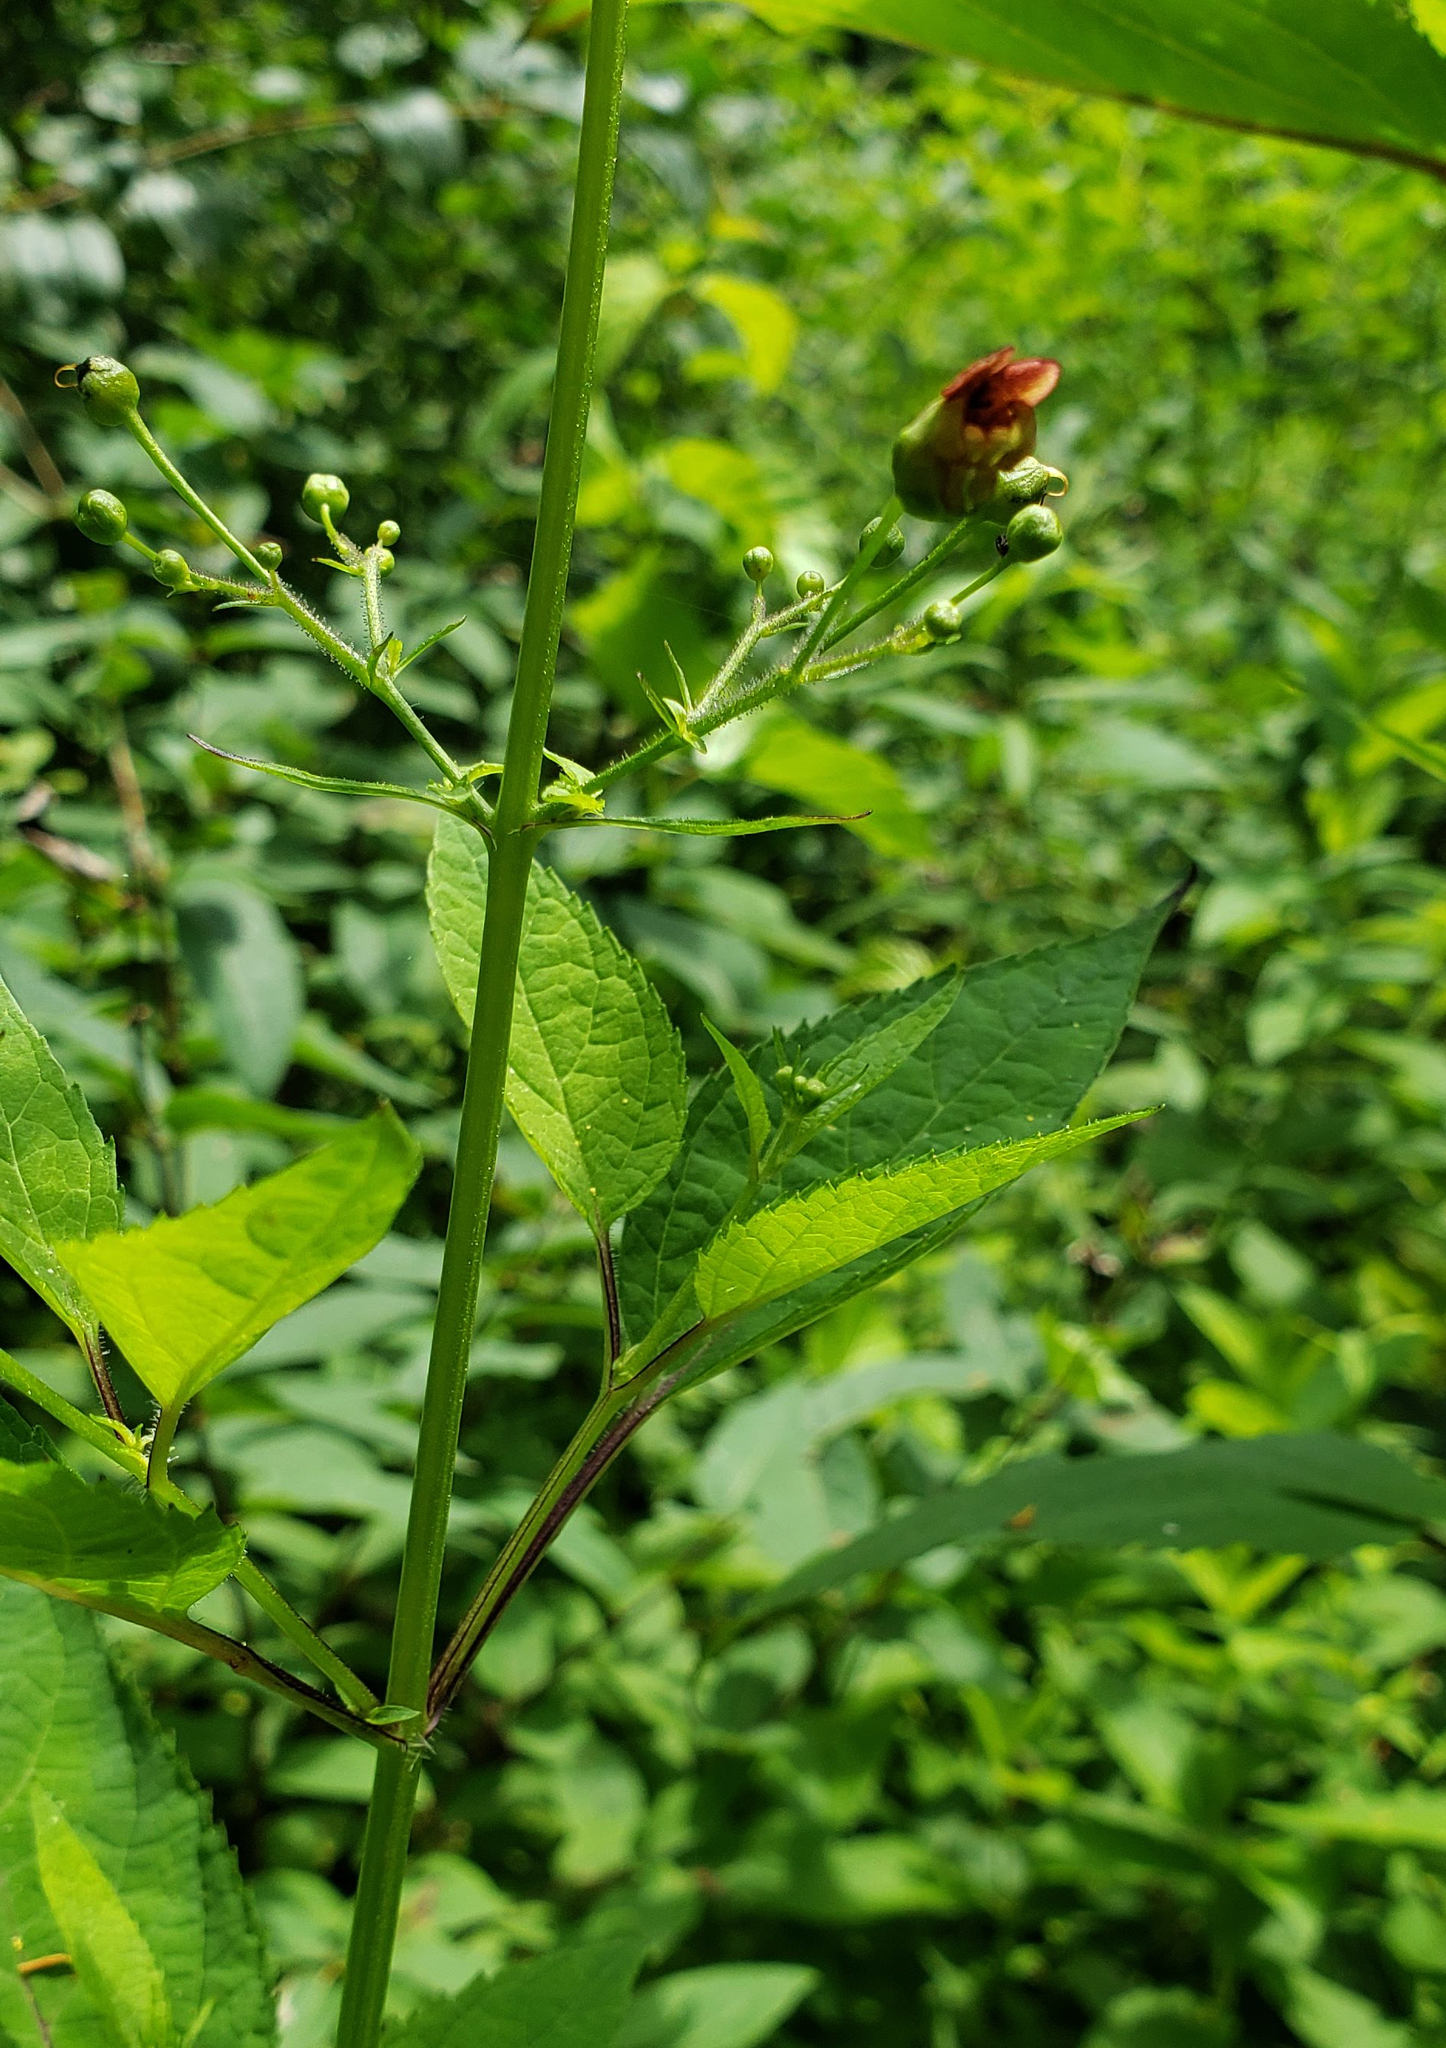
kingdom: Plantae
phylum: Tracheophyta
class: Magnoliopsida
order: Lamiales
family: Scrophulariaceae
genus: Scrophularia
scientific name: Scrophularia marilandica
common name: Eastern figwort
